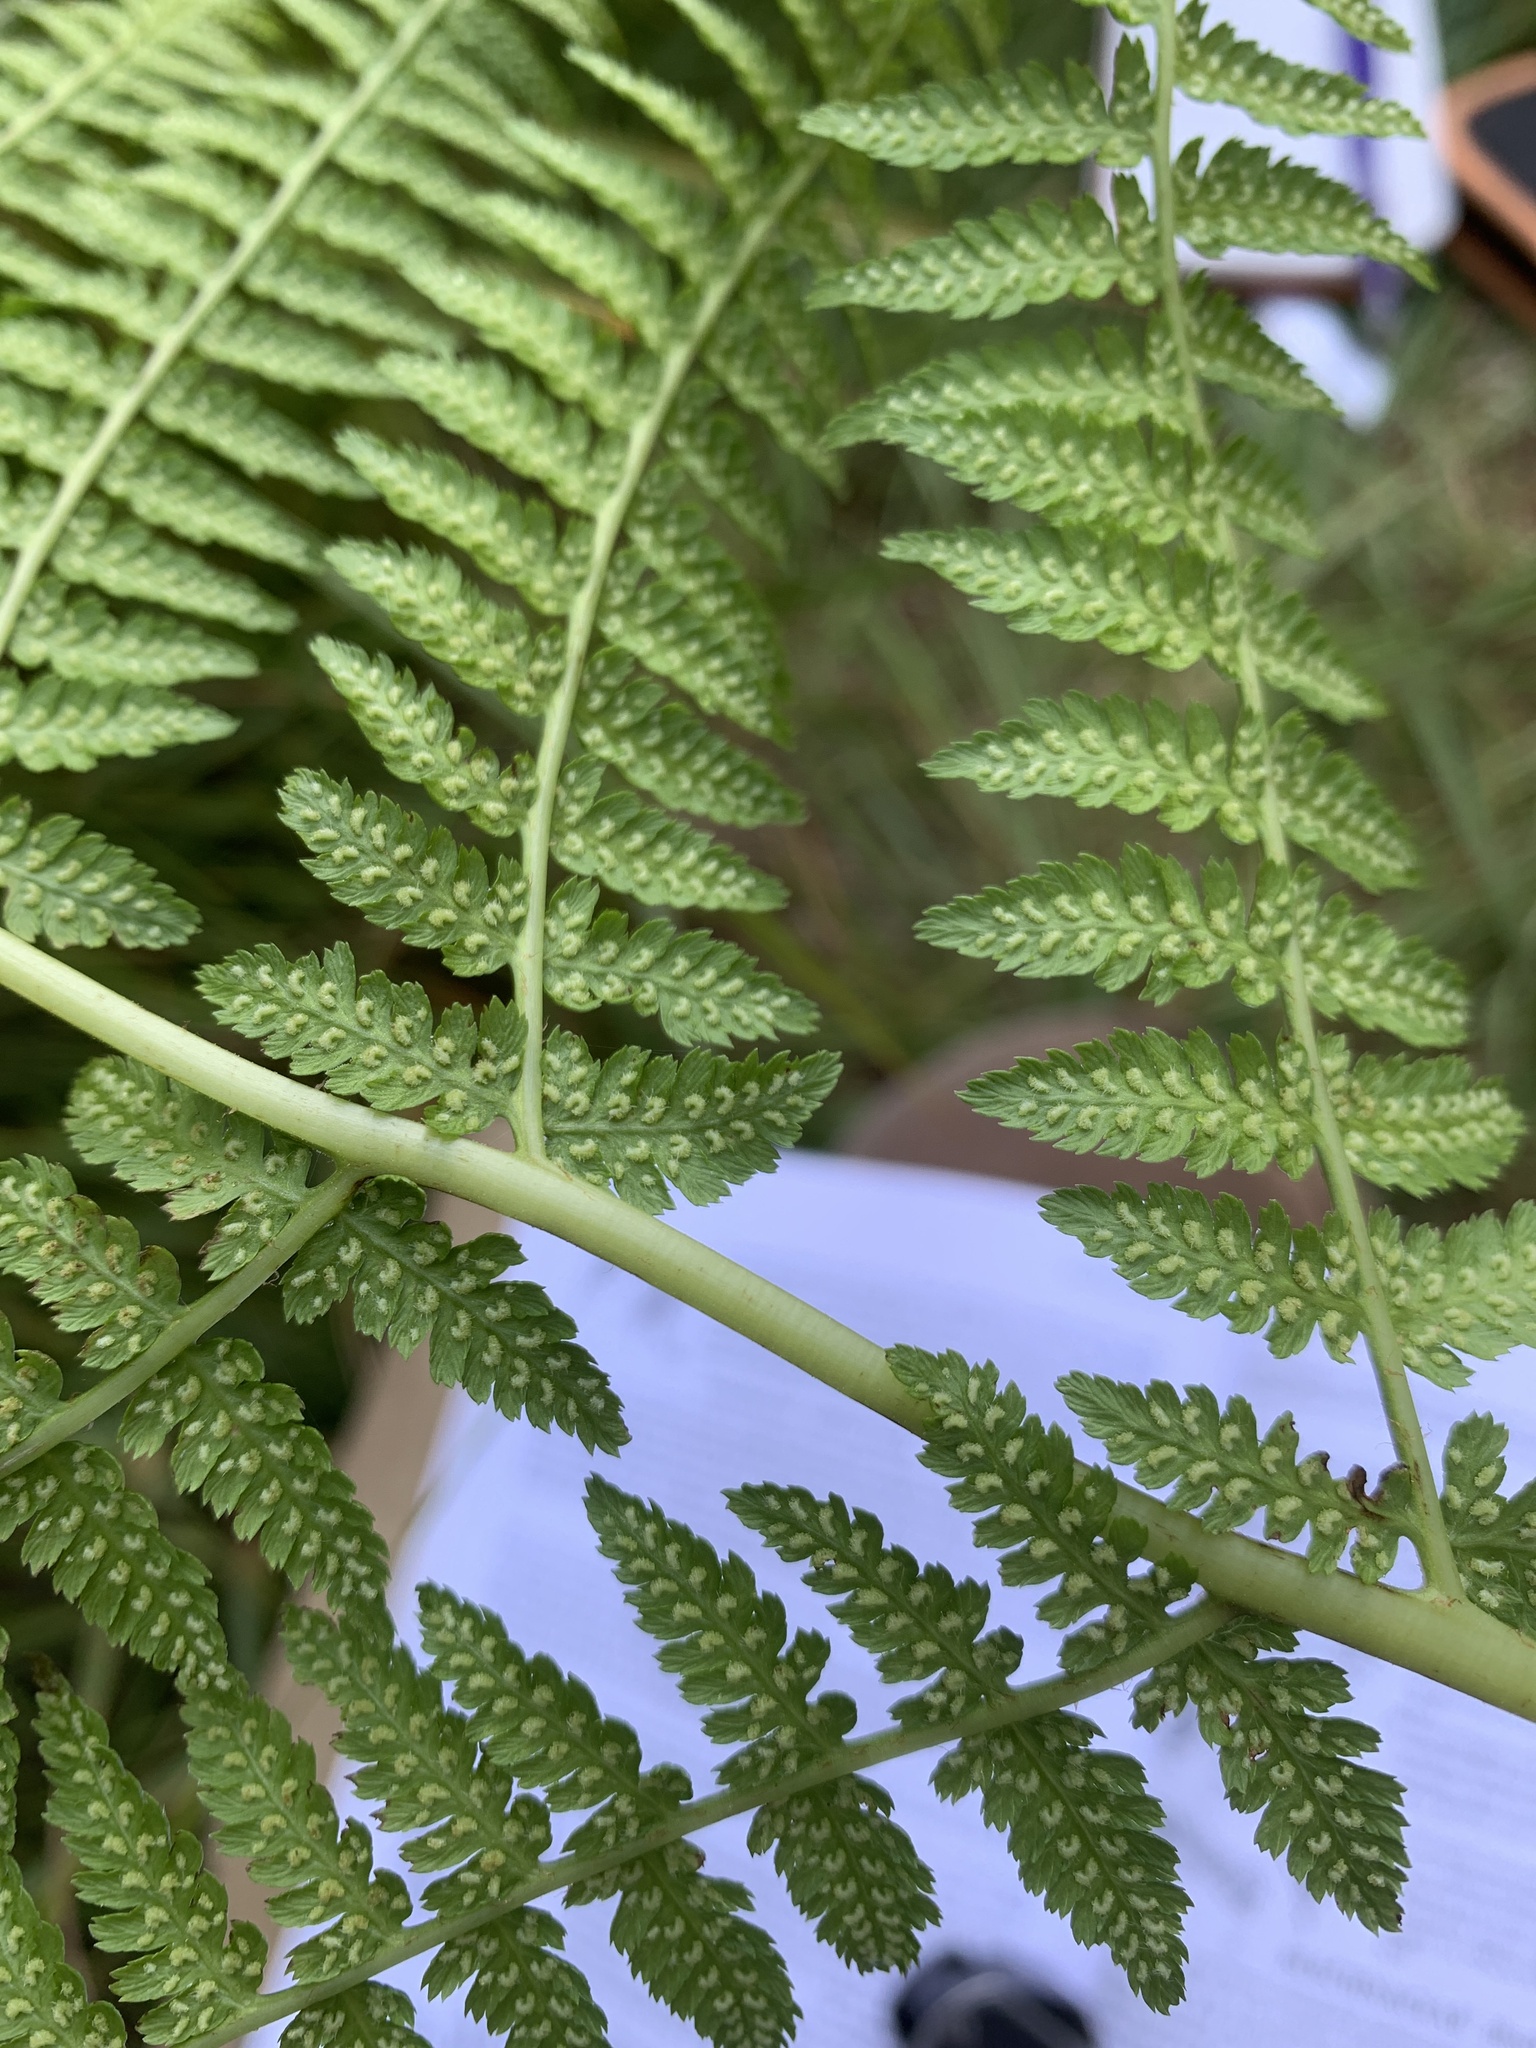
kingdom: Plantae
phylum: Tracheophyta
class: Polypodiopsida
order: Polypodiales
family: Athyriaceae
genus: Athyrium
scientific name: Athyrium filix-femina
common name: Lady fern
